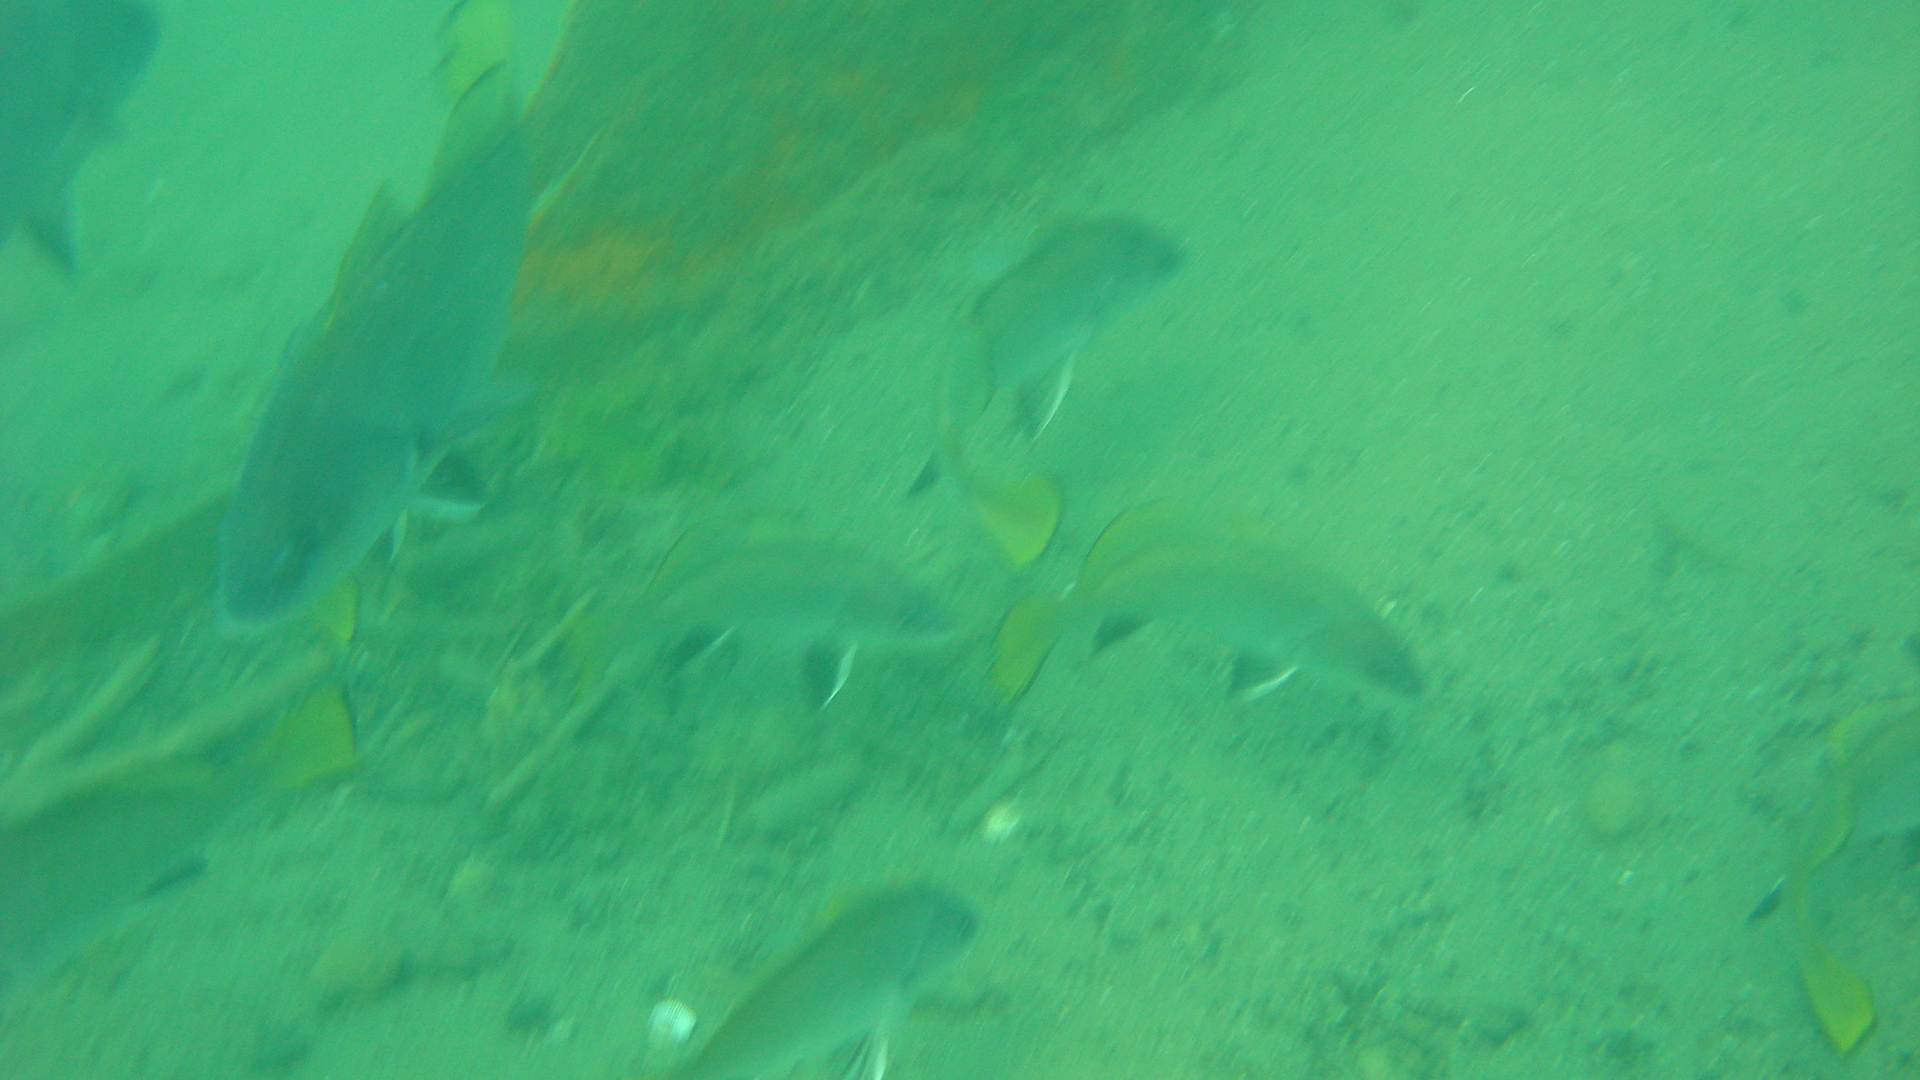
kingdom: Animalia
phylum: Chordata
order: Perciformes
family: Sciaenidae
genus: Sciaena
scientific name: Sciaena umbra
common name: Brown meagre
